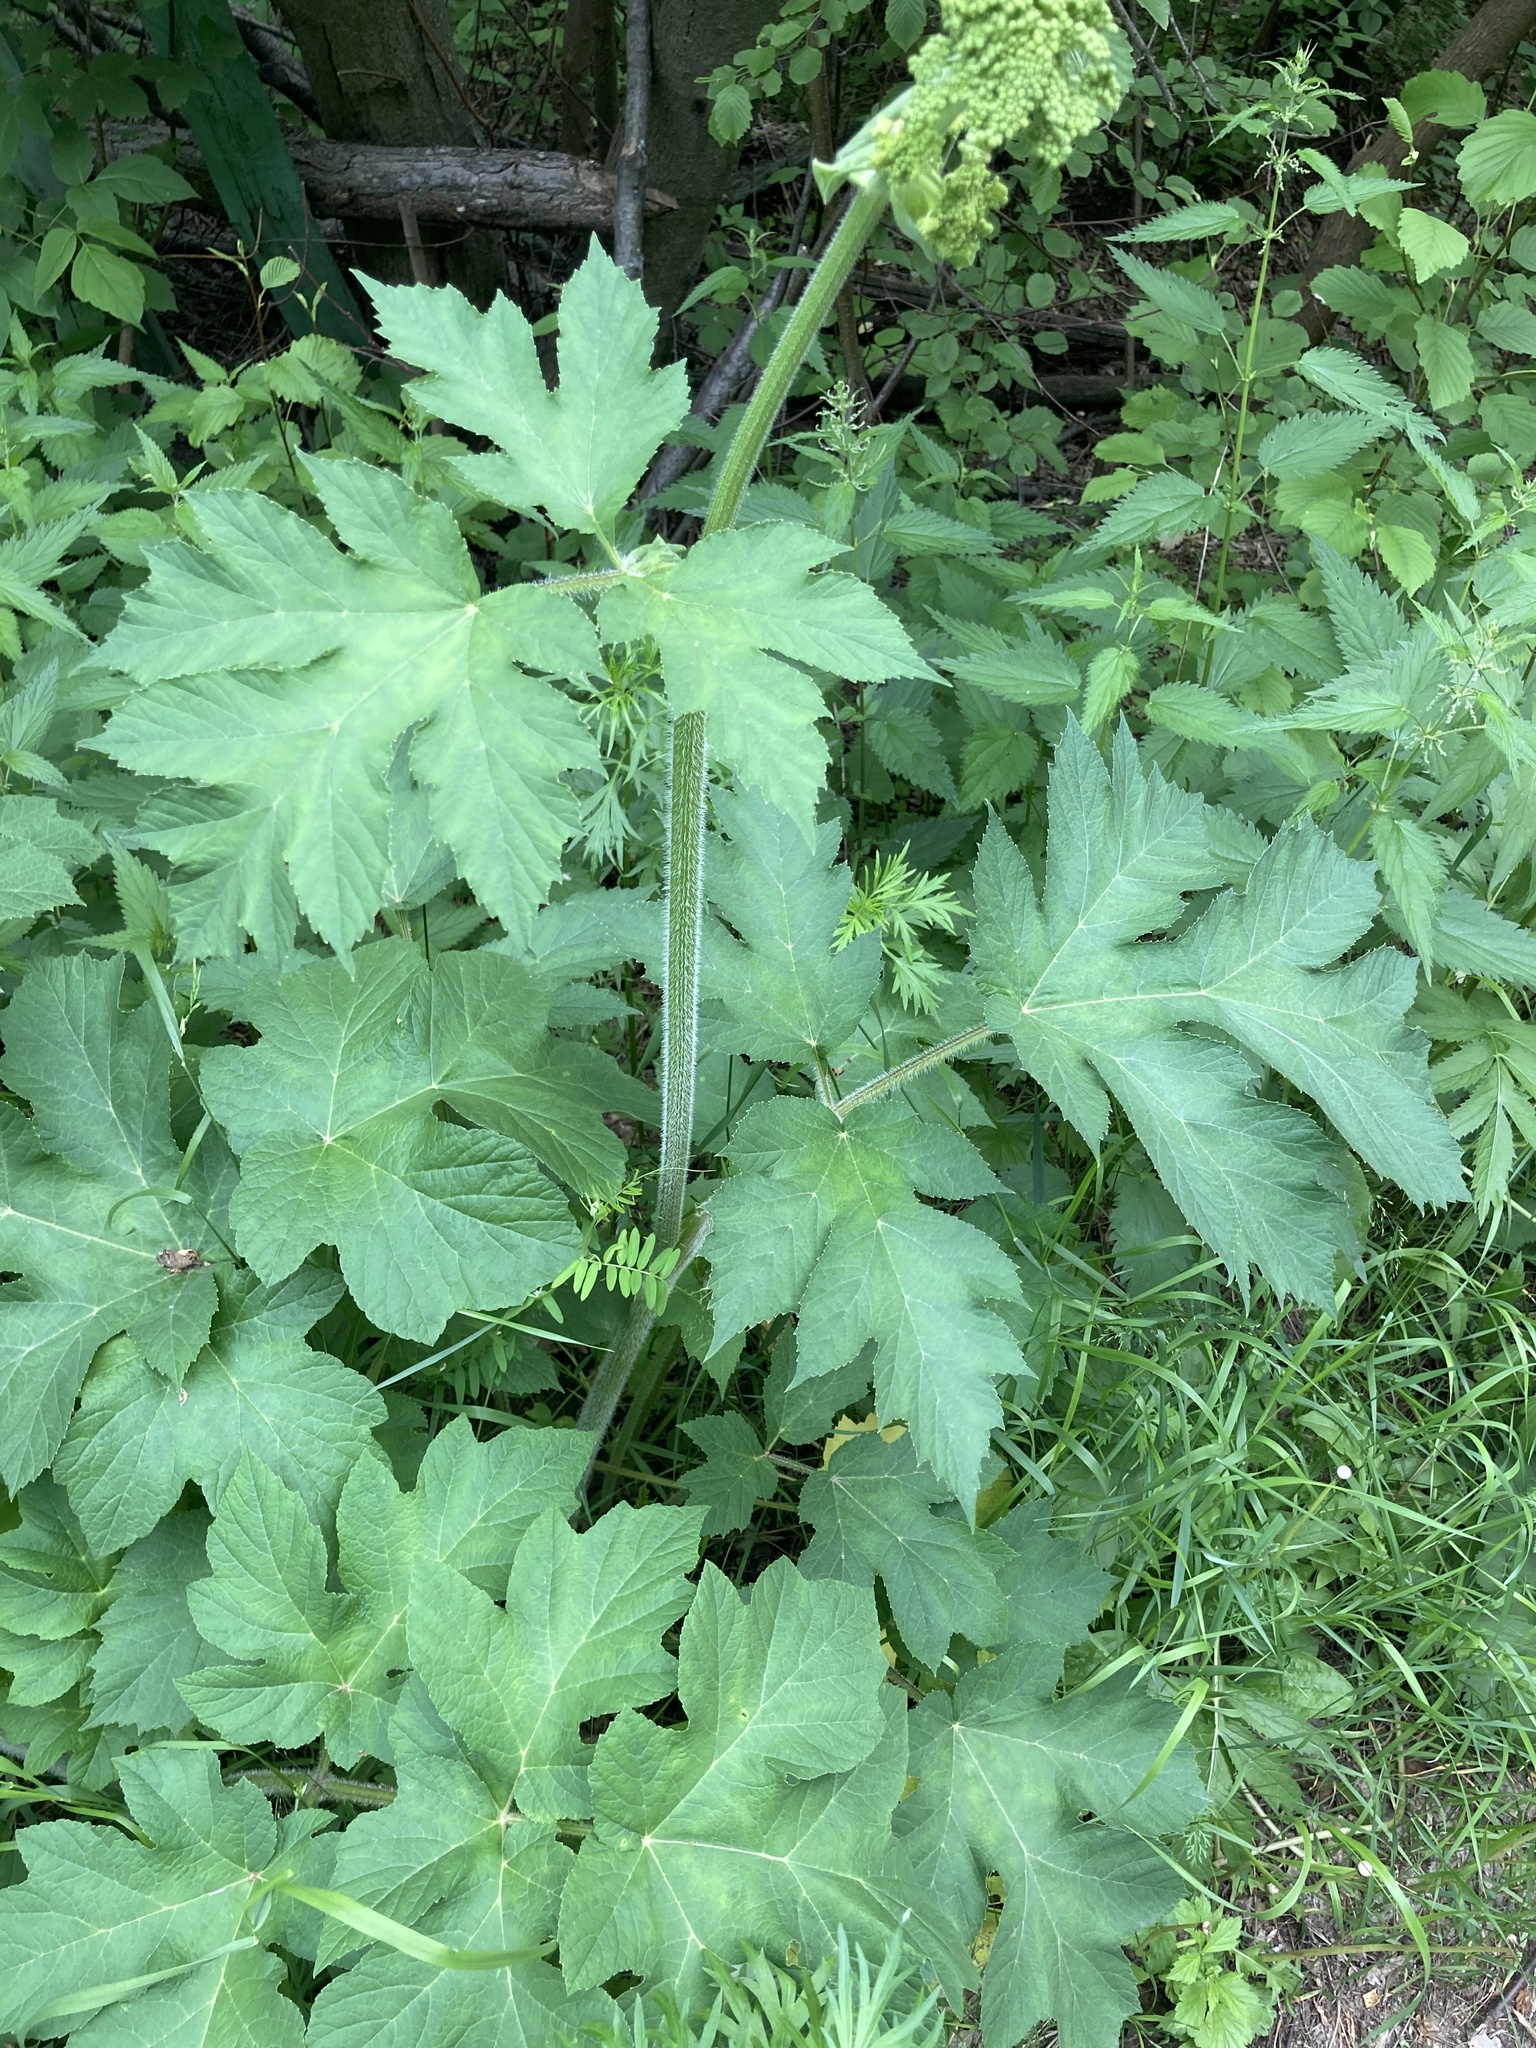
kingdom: Plantae
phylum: Tracheophyta
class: Magnoliopsida
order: Apiales
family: Apiaceae
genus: Heracleum
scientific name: Heracleum sphondylium
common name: Hogweed
